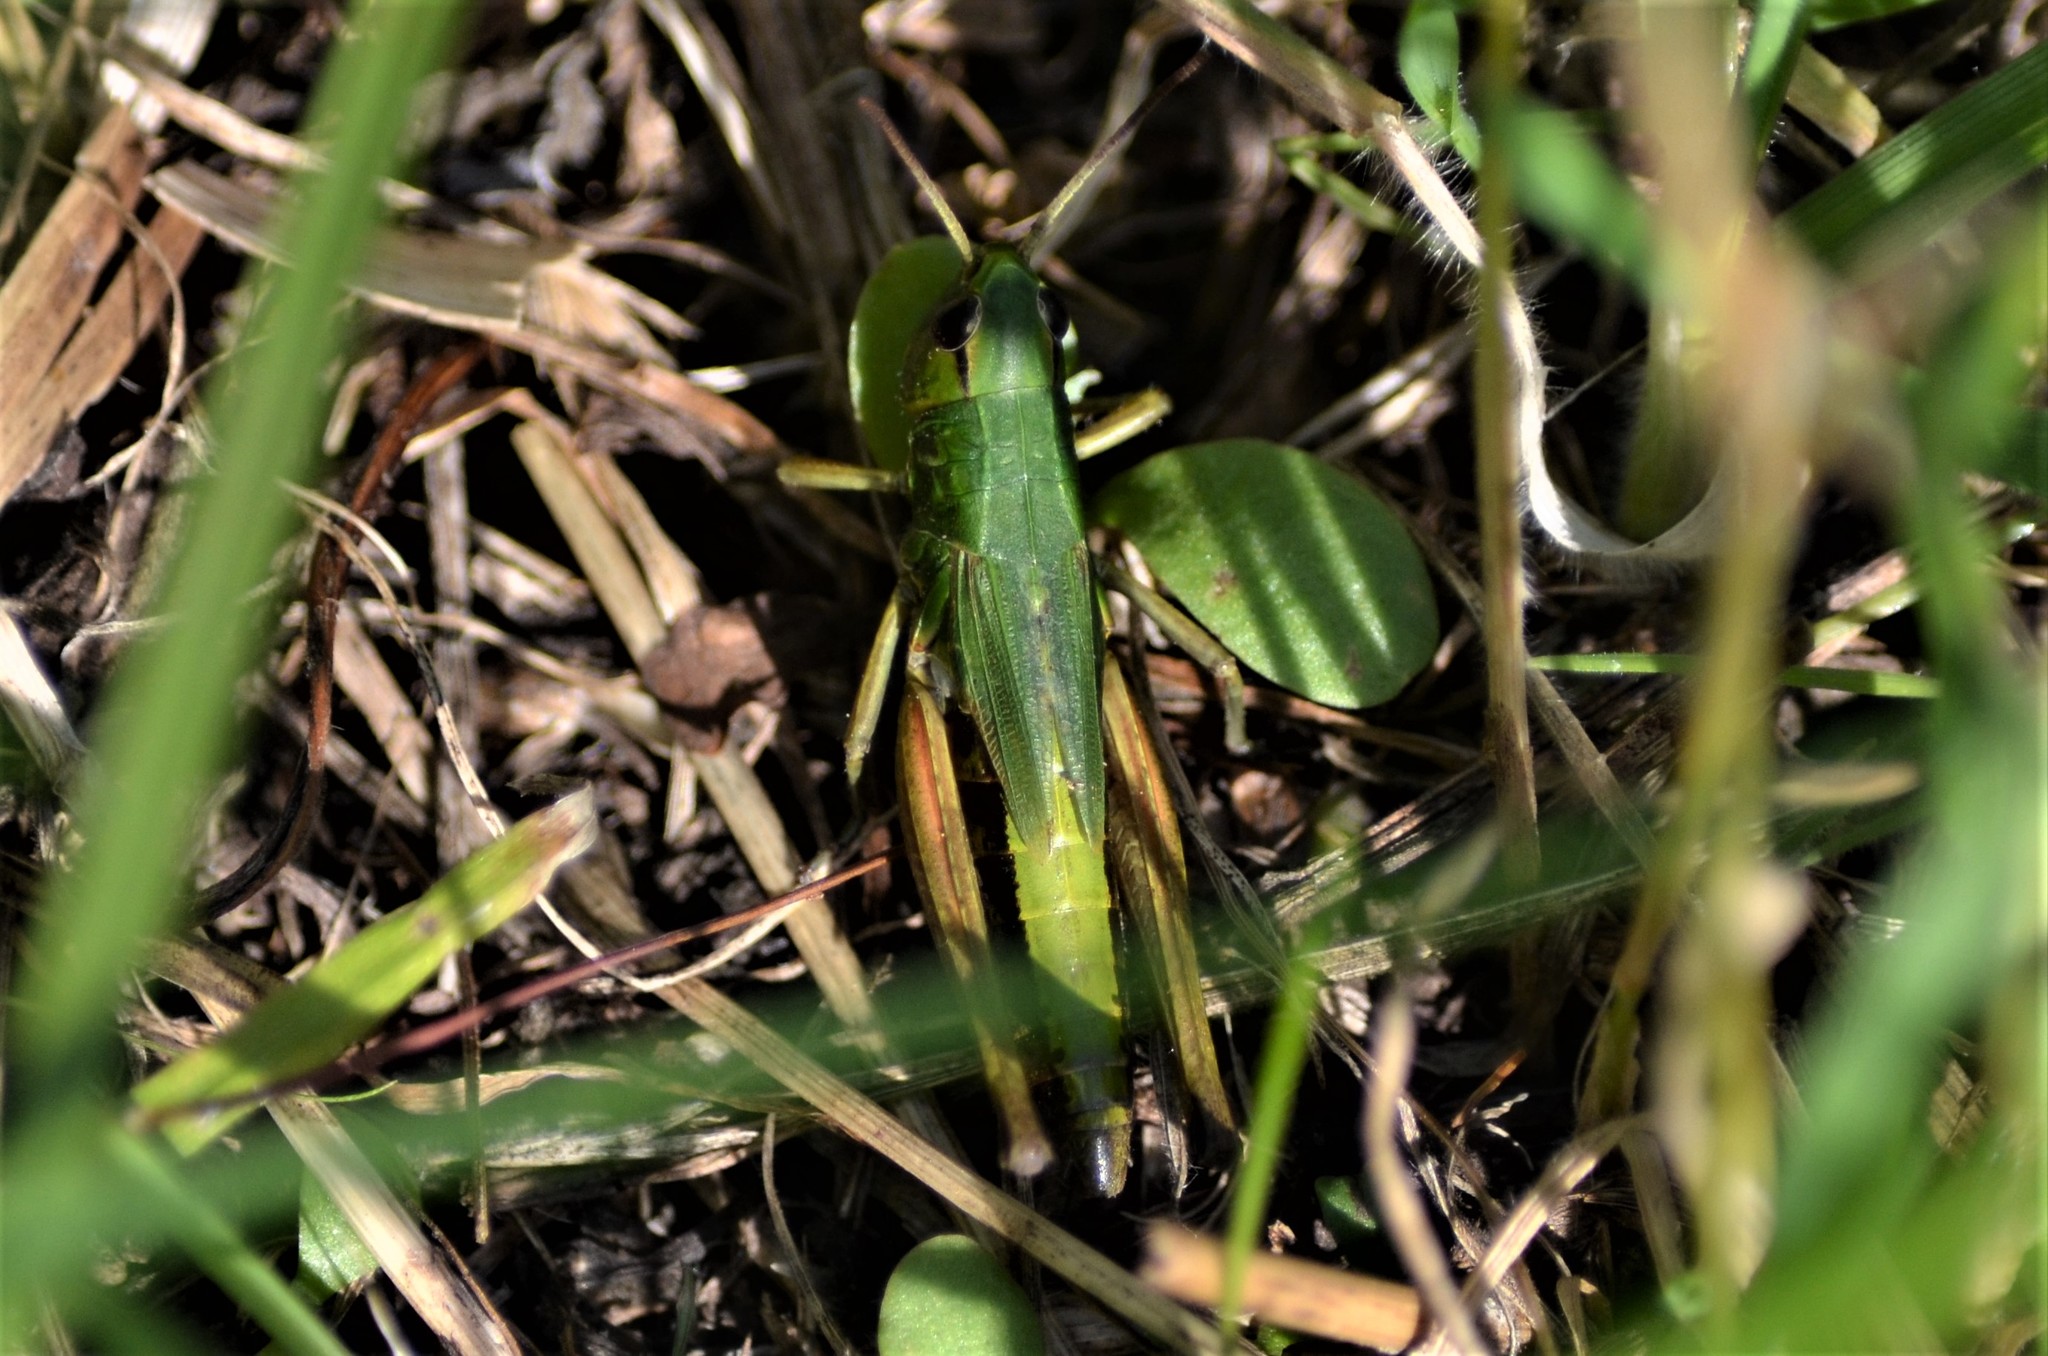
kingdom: Animalia
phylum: Arthropoda
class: Insecta
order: Orthoptera
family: Acrididae
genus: Pseudochorthippus
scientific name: Pseudochorthippus parallelus
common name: Meadow grasshopper
